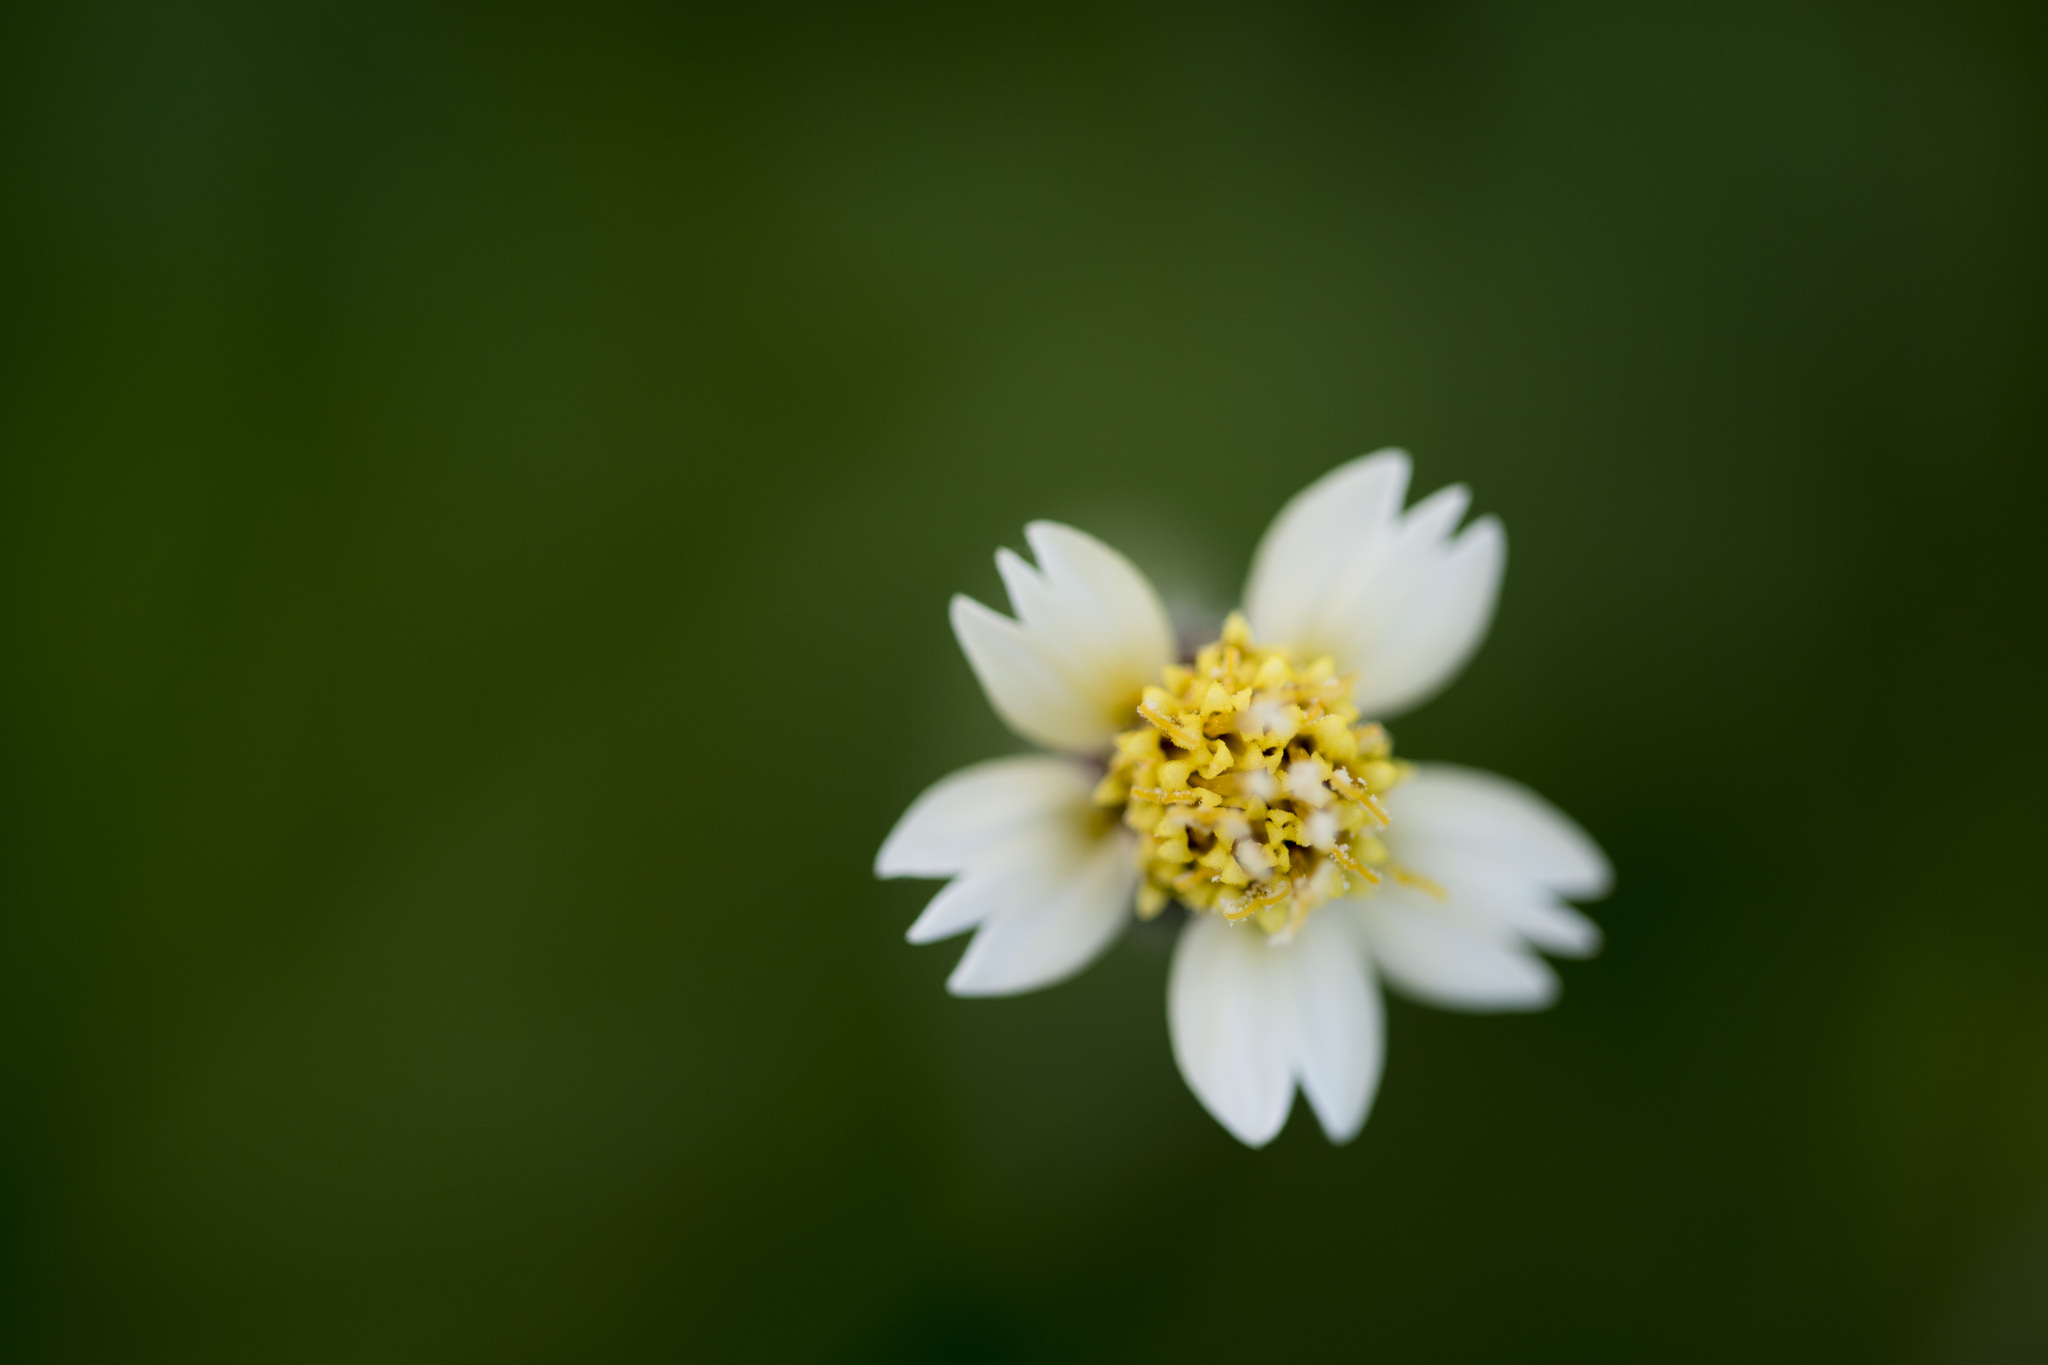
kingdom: Plantae
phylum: Tracheophyta
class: Magnoliopsida
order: Asterales
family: Asteraceae
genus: Tridax
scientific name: Tridax procumbens
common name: Coatbuttons
